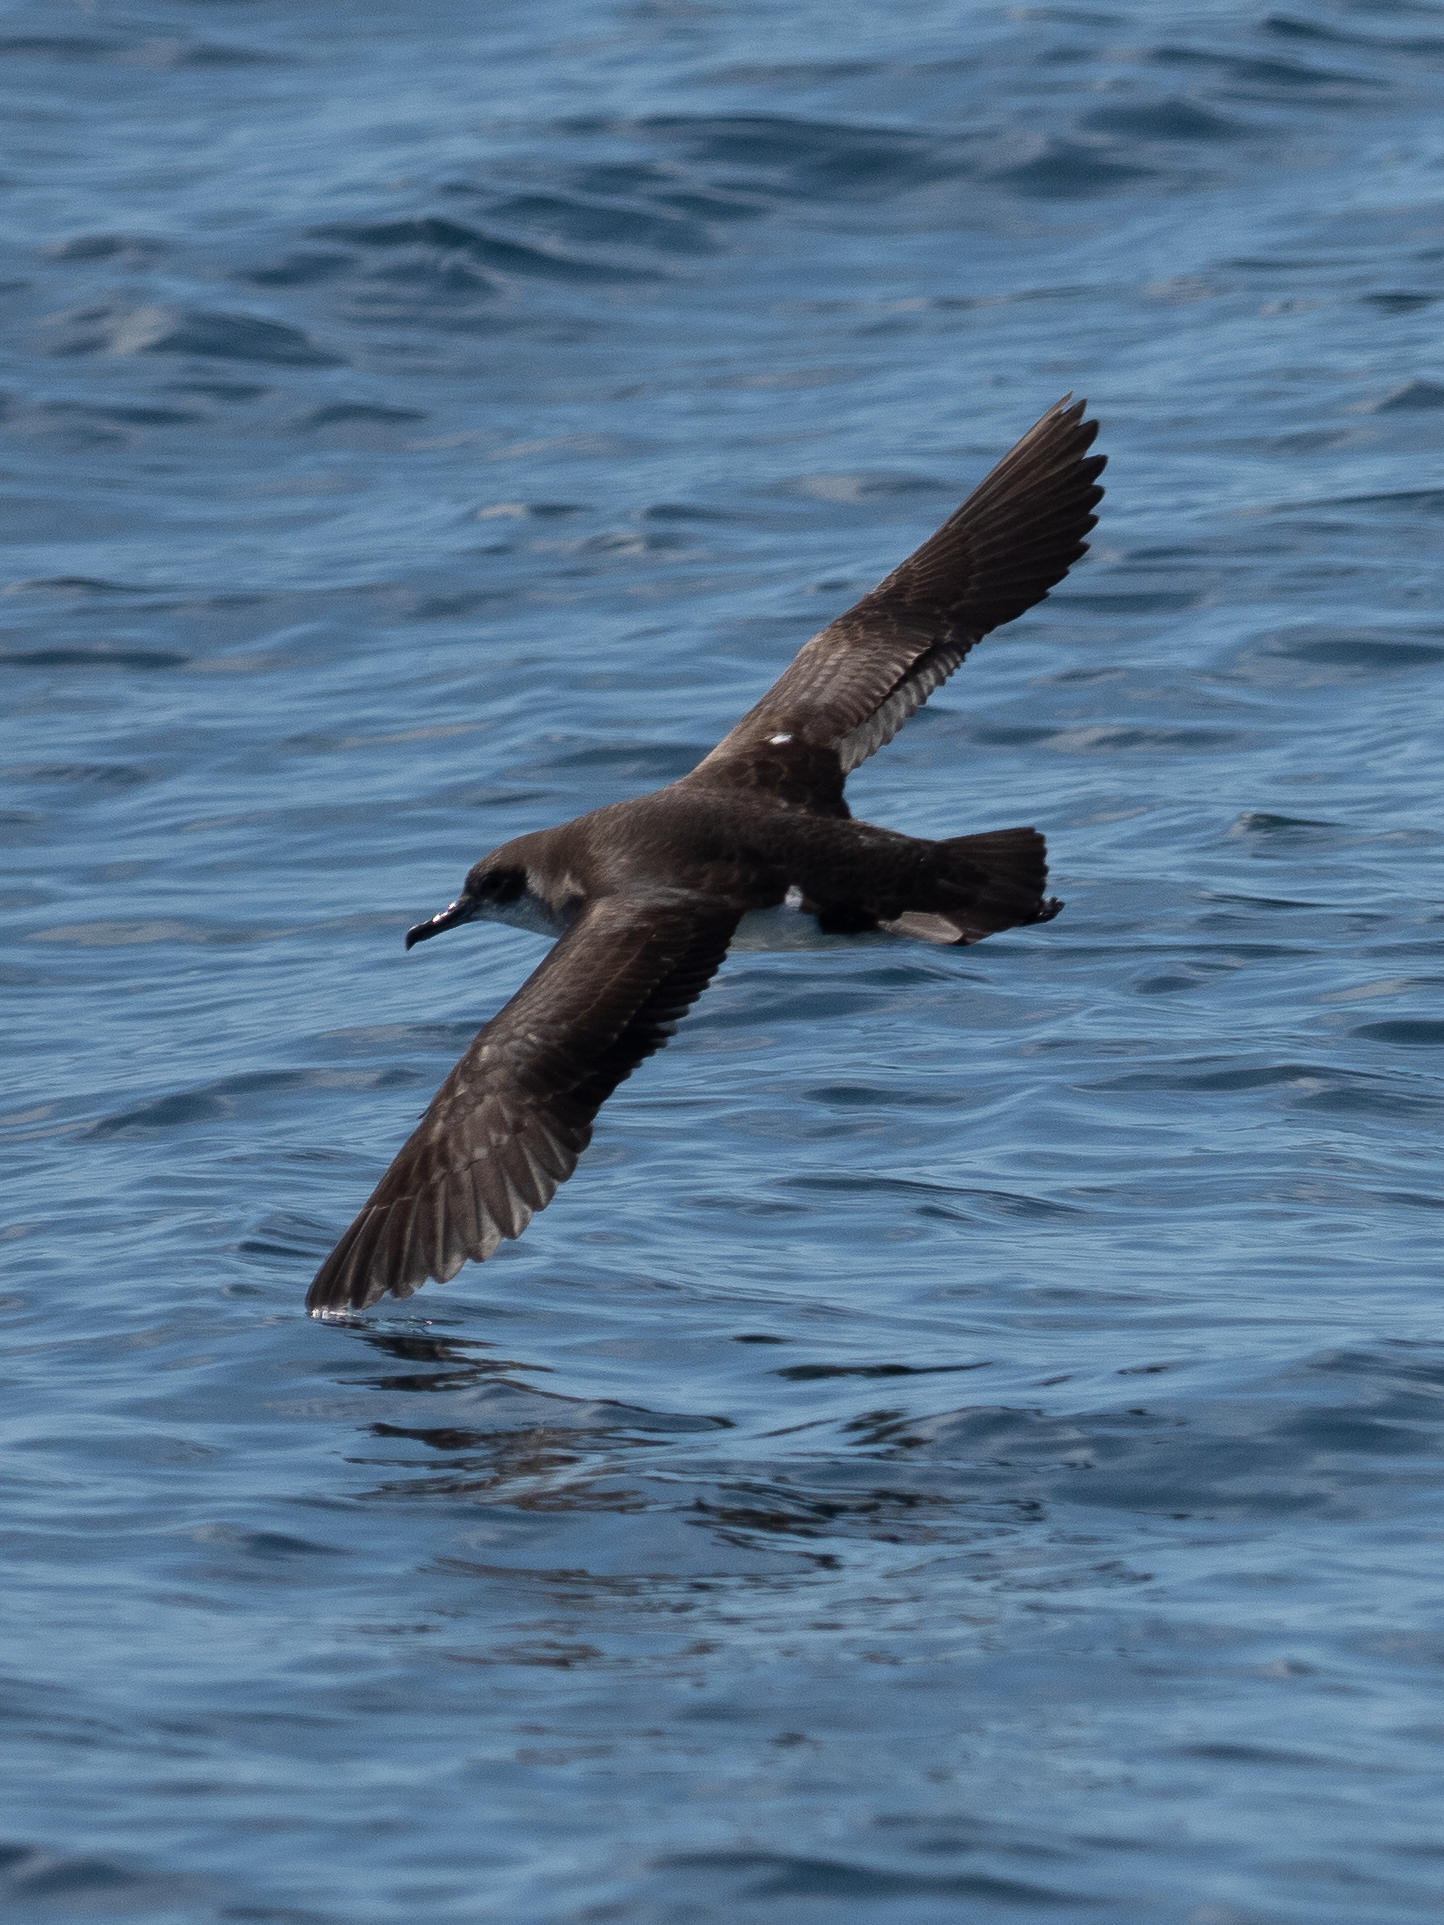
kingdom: Animalia
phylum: Chordata
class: Aves
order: Procellariiformes
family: Procellariidae
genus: Puffinus
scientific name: Puffinus puffinus
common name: Manx shearwater
